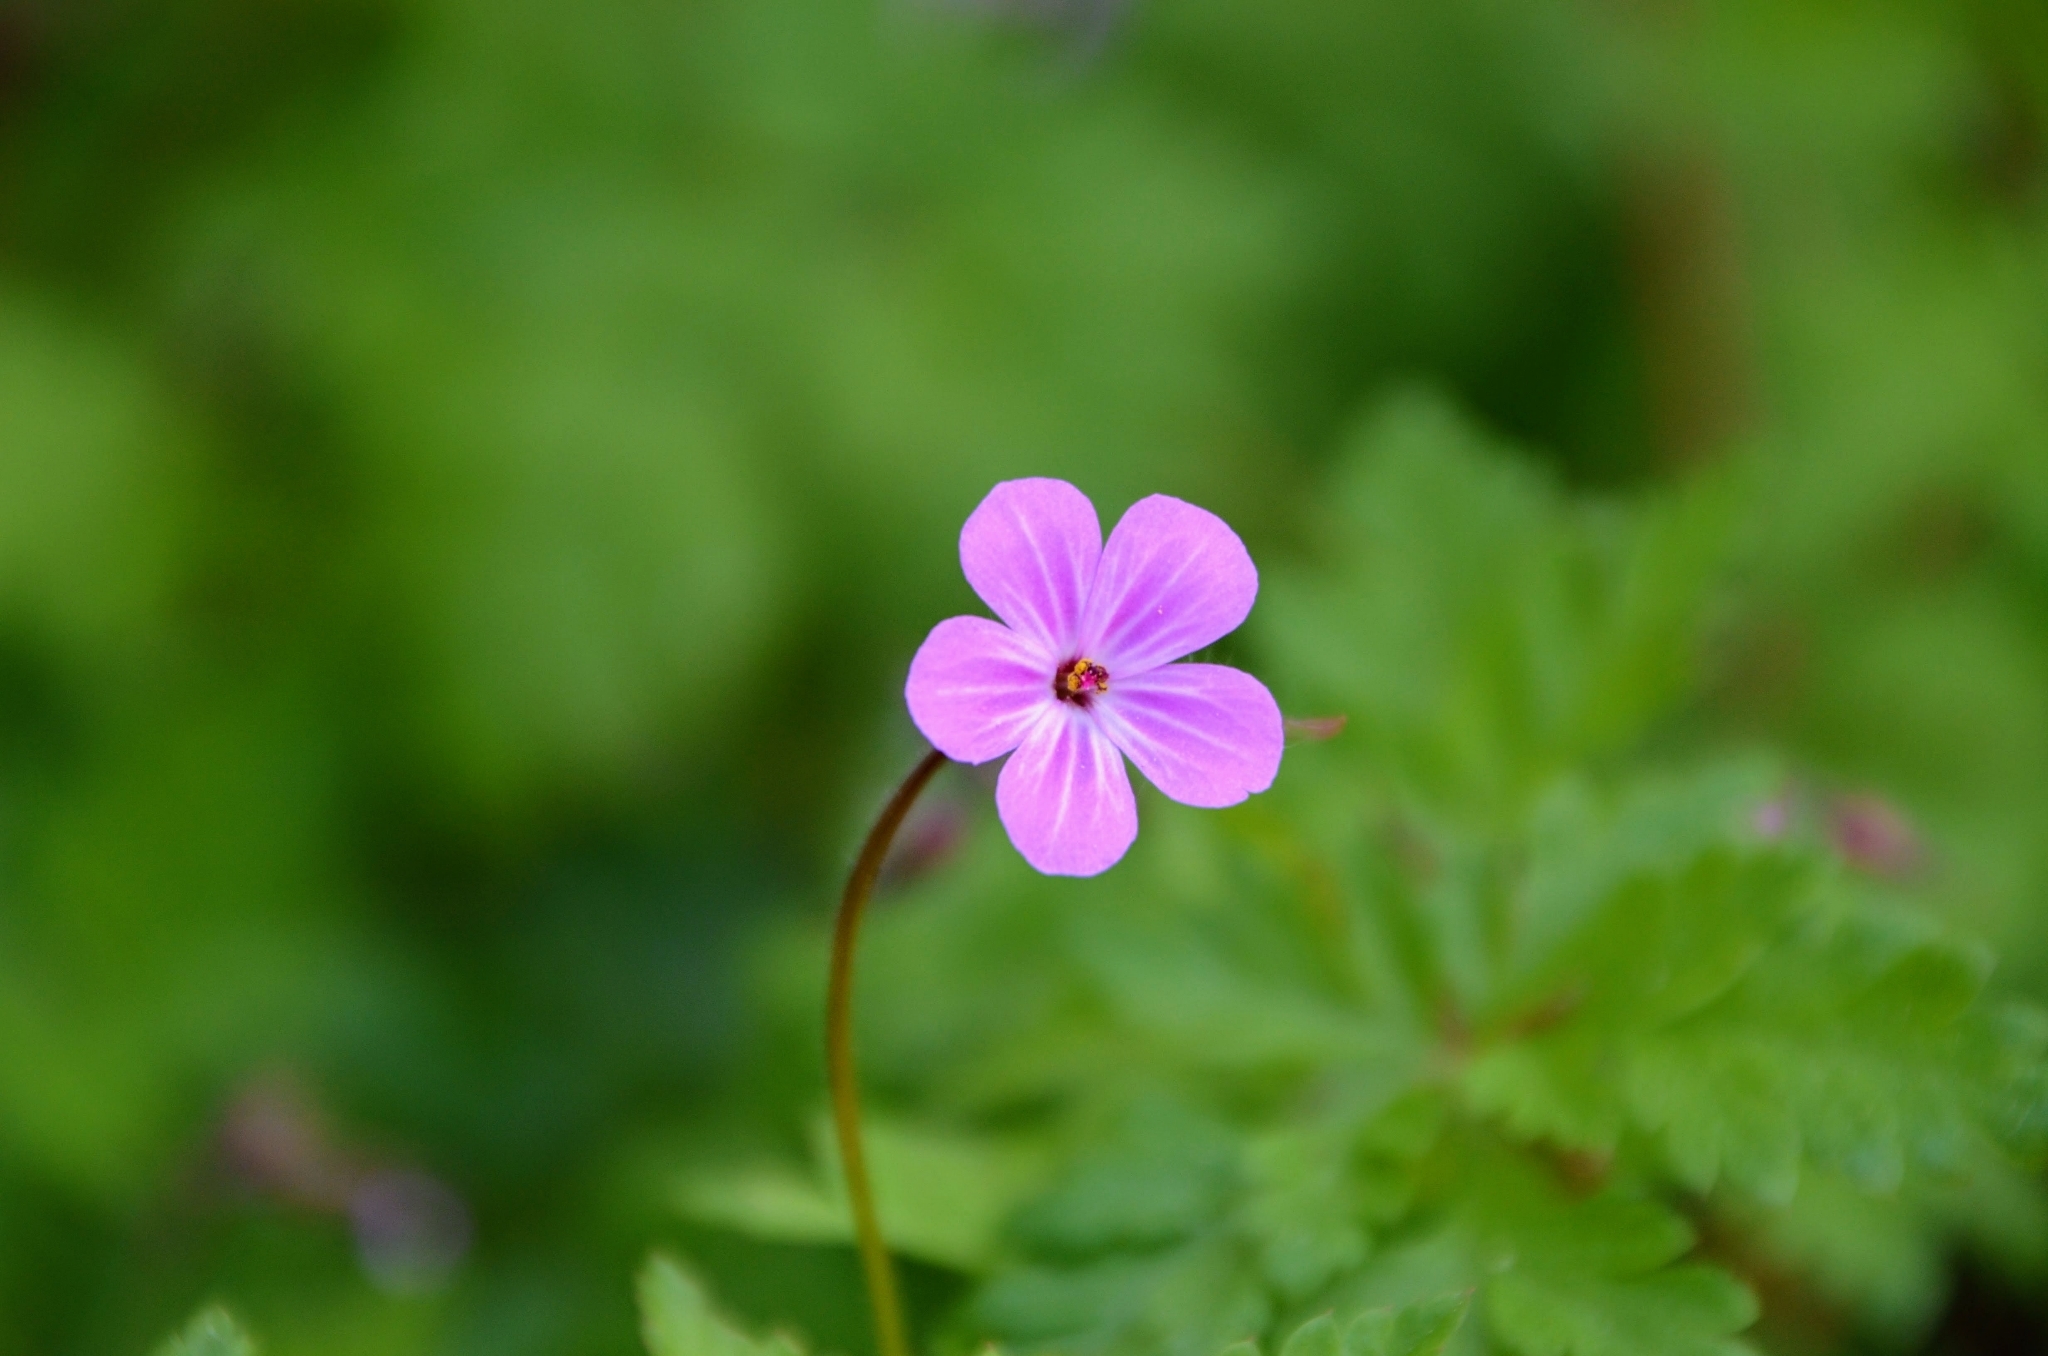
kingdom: Plantae
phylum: Tracheophyta
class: Magnoliopsida
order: Geraniales
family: Geraniaceae
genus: Geranium
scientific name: Geranium robertianum
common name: Herb-robert
